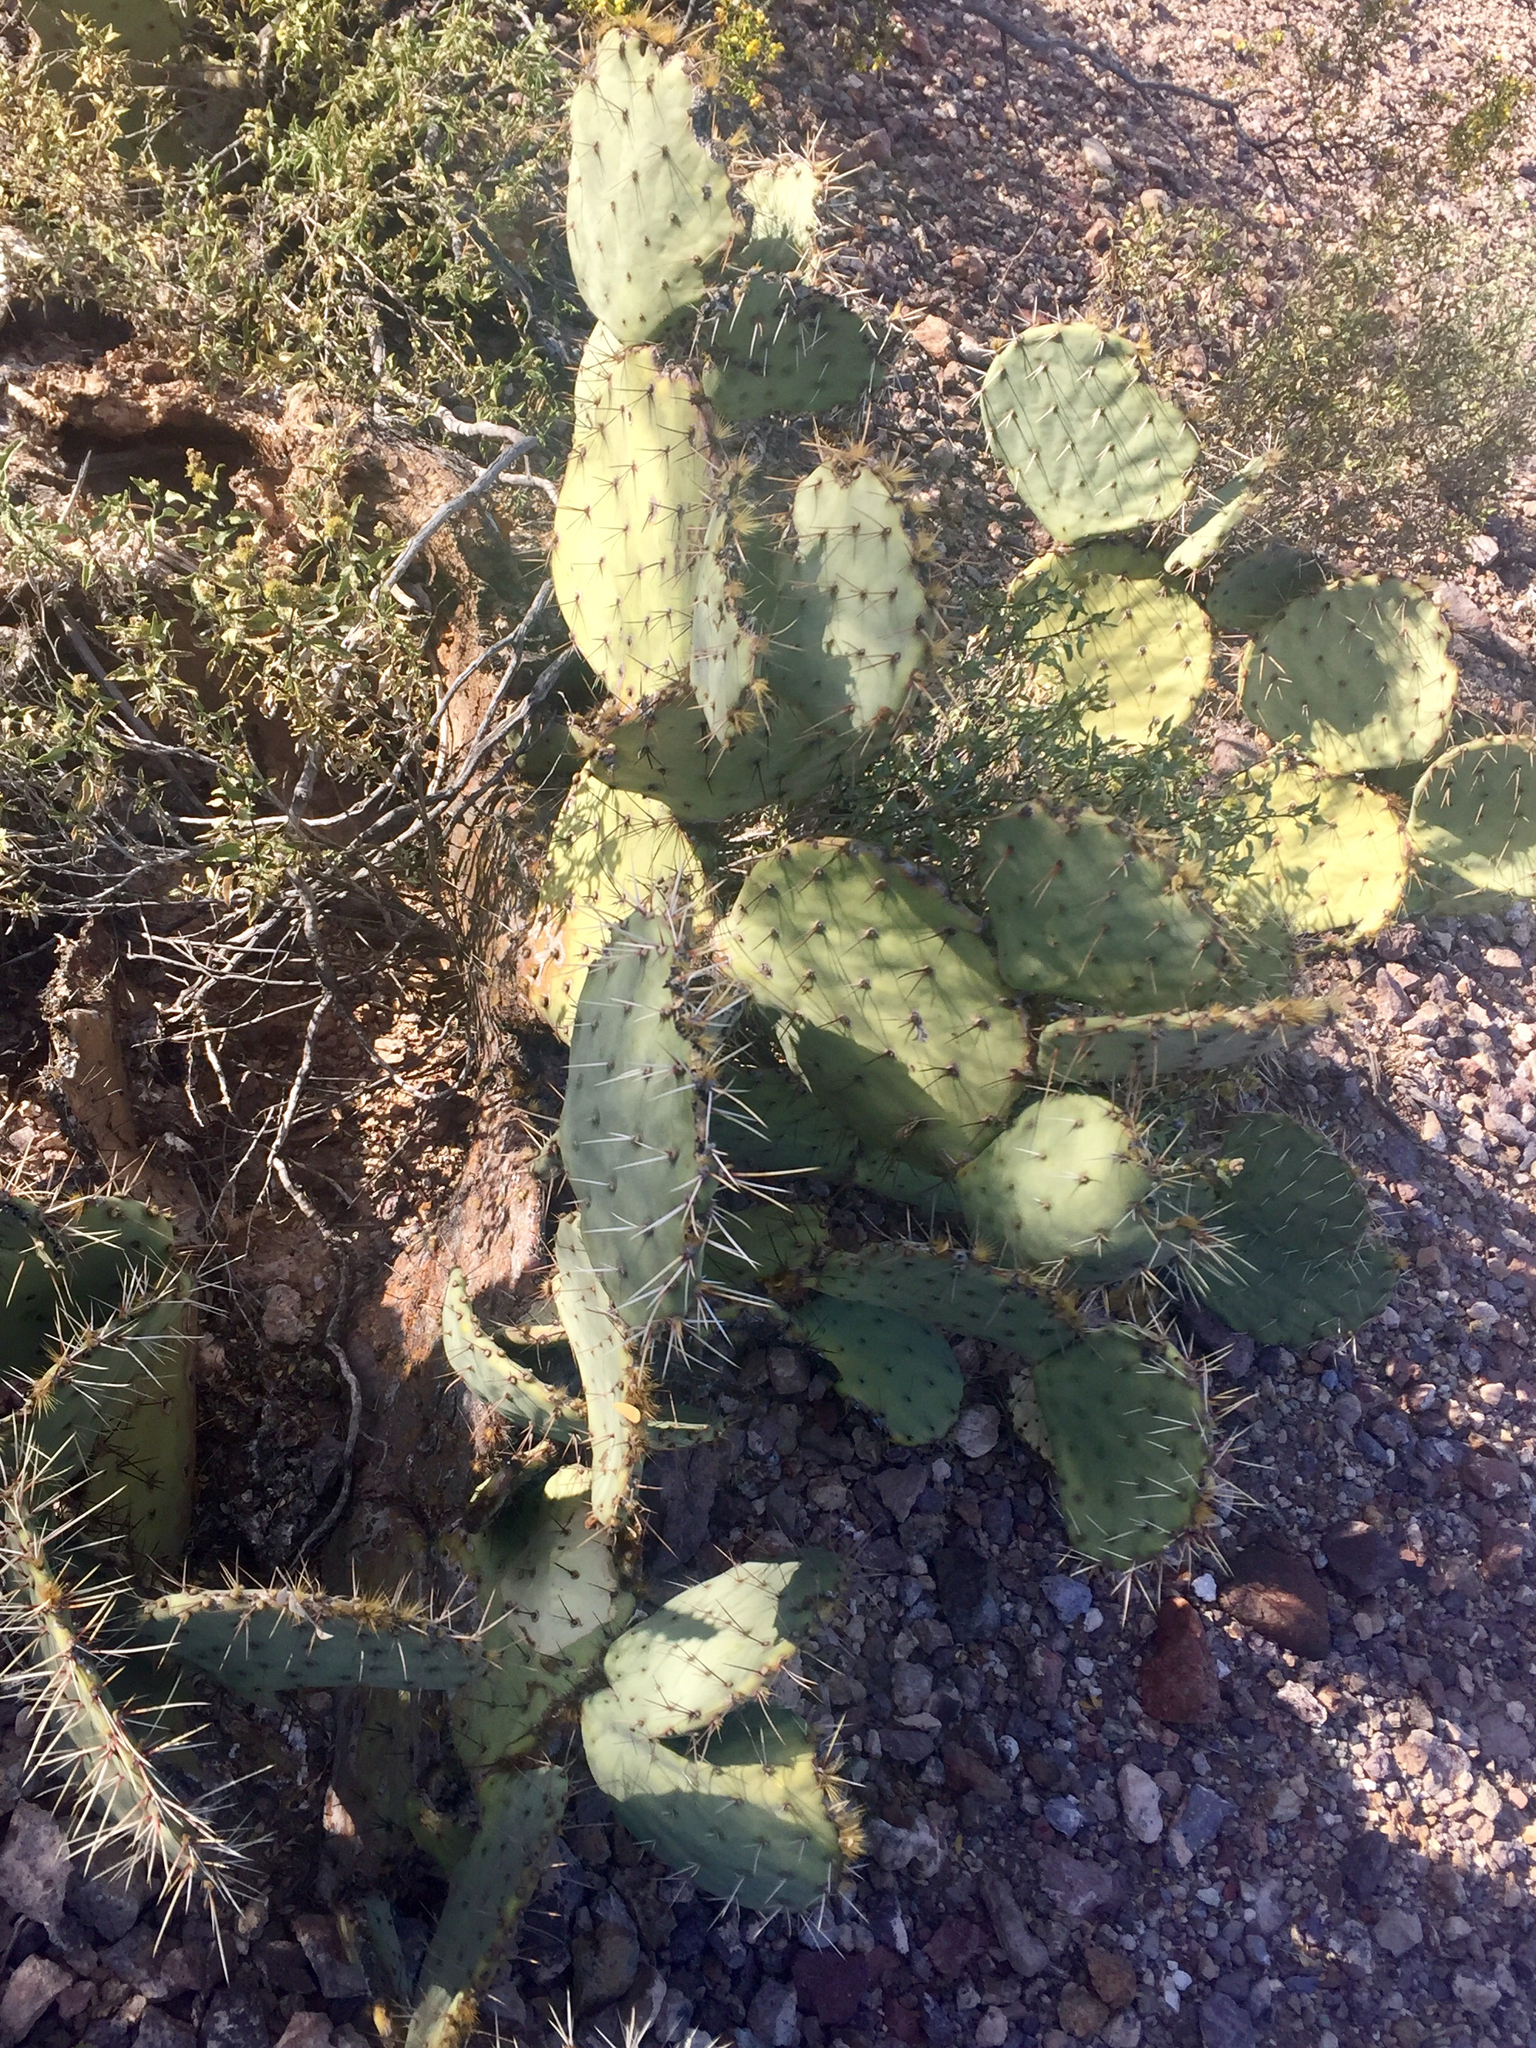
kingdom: Plantae
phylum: Tracheophyta
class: Magnoliopsida
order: Caryophyllales
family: Cactaceae
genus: Opuntia
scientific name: Opuntia engelmannii
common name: Cactus-apple
